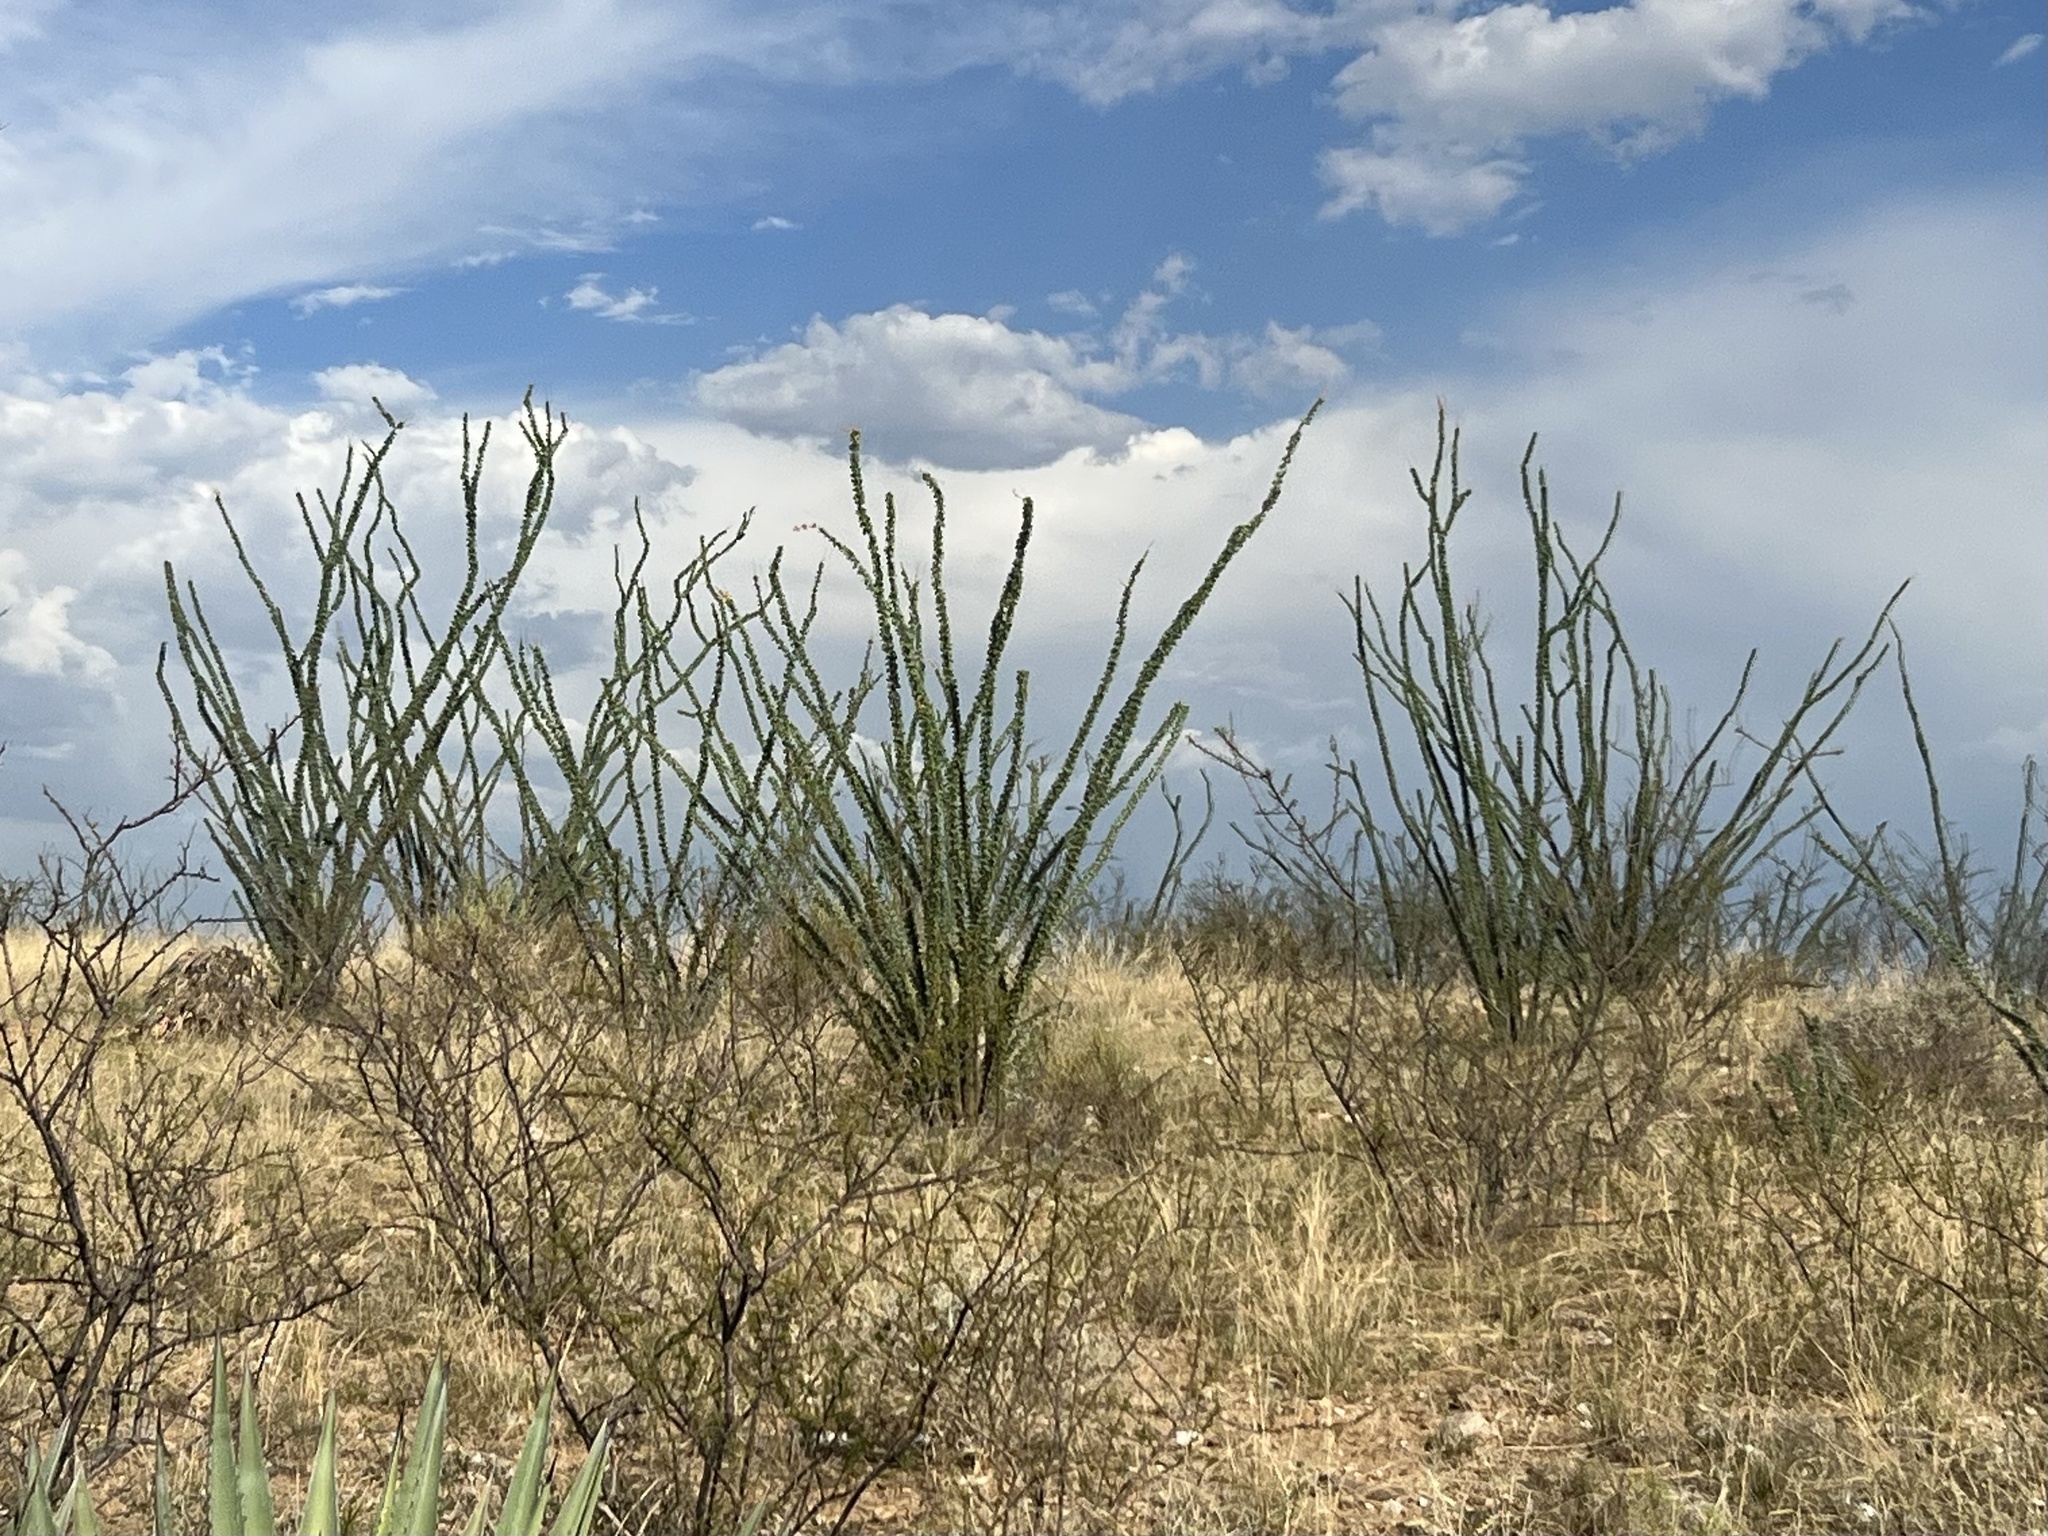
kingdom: Plantae
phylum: Tracheophyta
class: Magnoliopsida
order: Ericales
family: Fouquieriaceae
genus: Fouquieria
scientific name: Fouquieria splendens
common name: Vine-cactus
